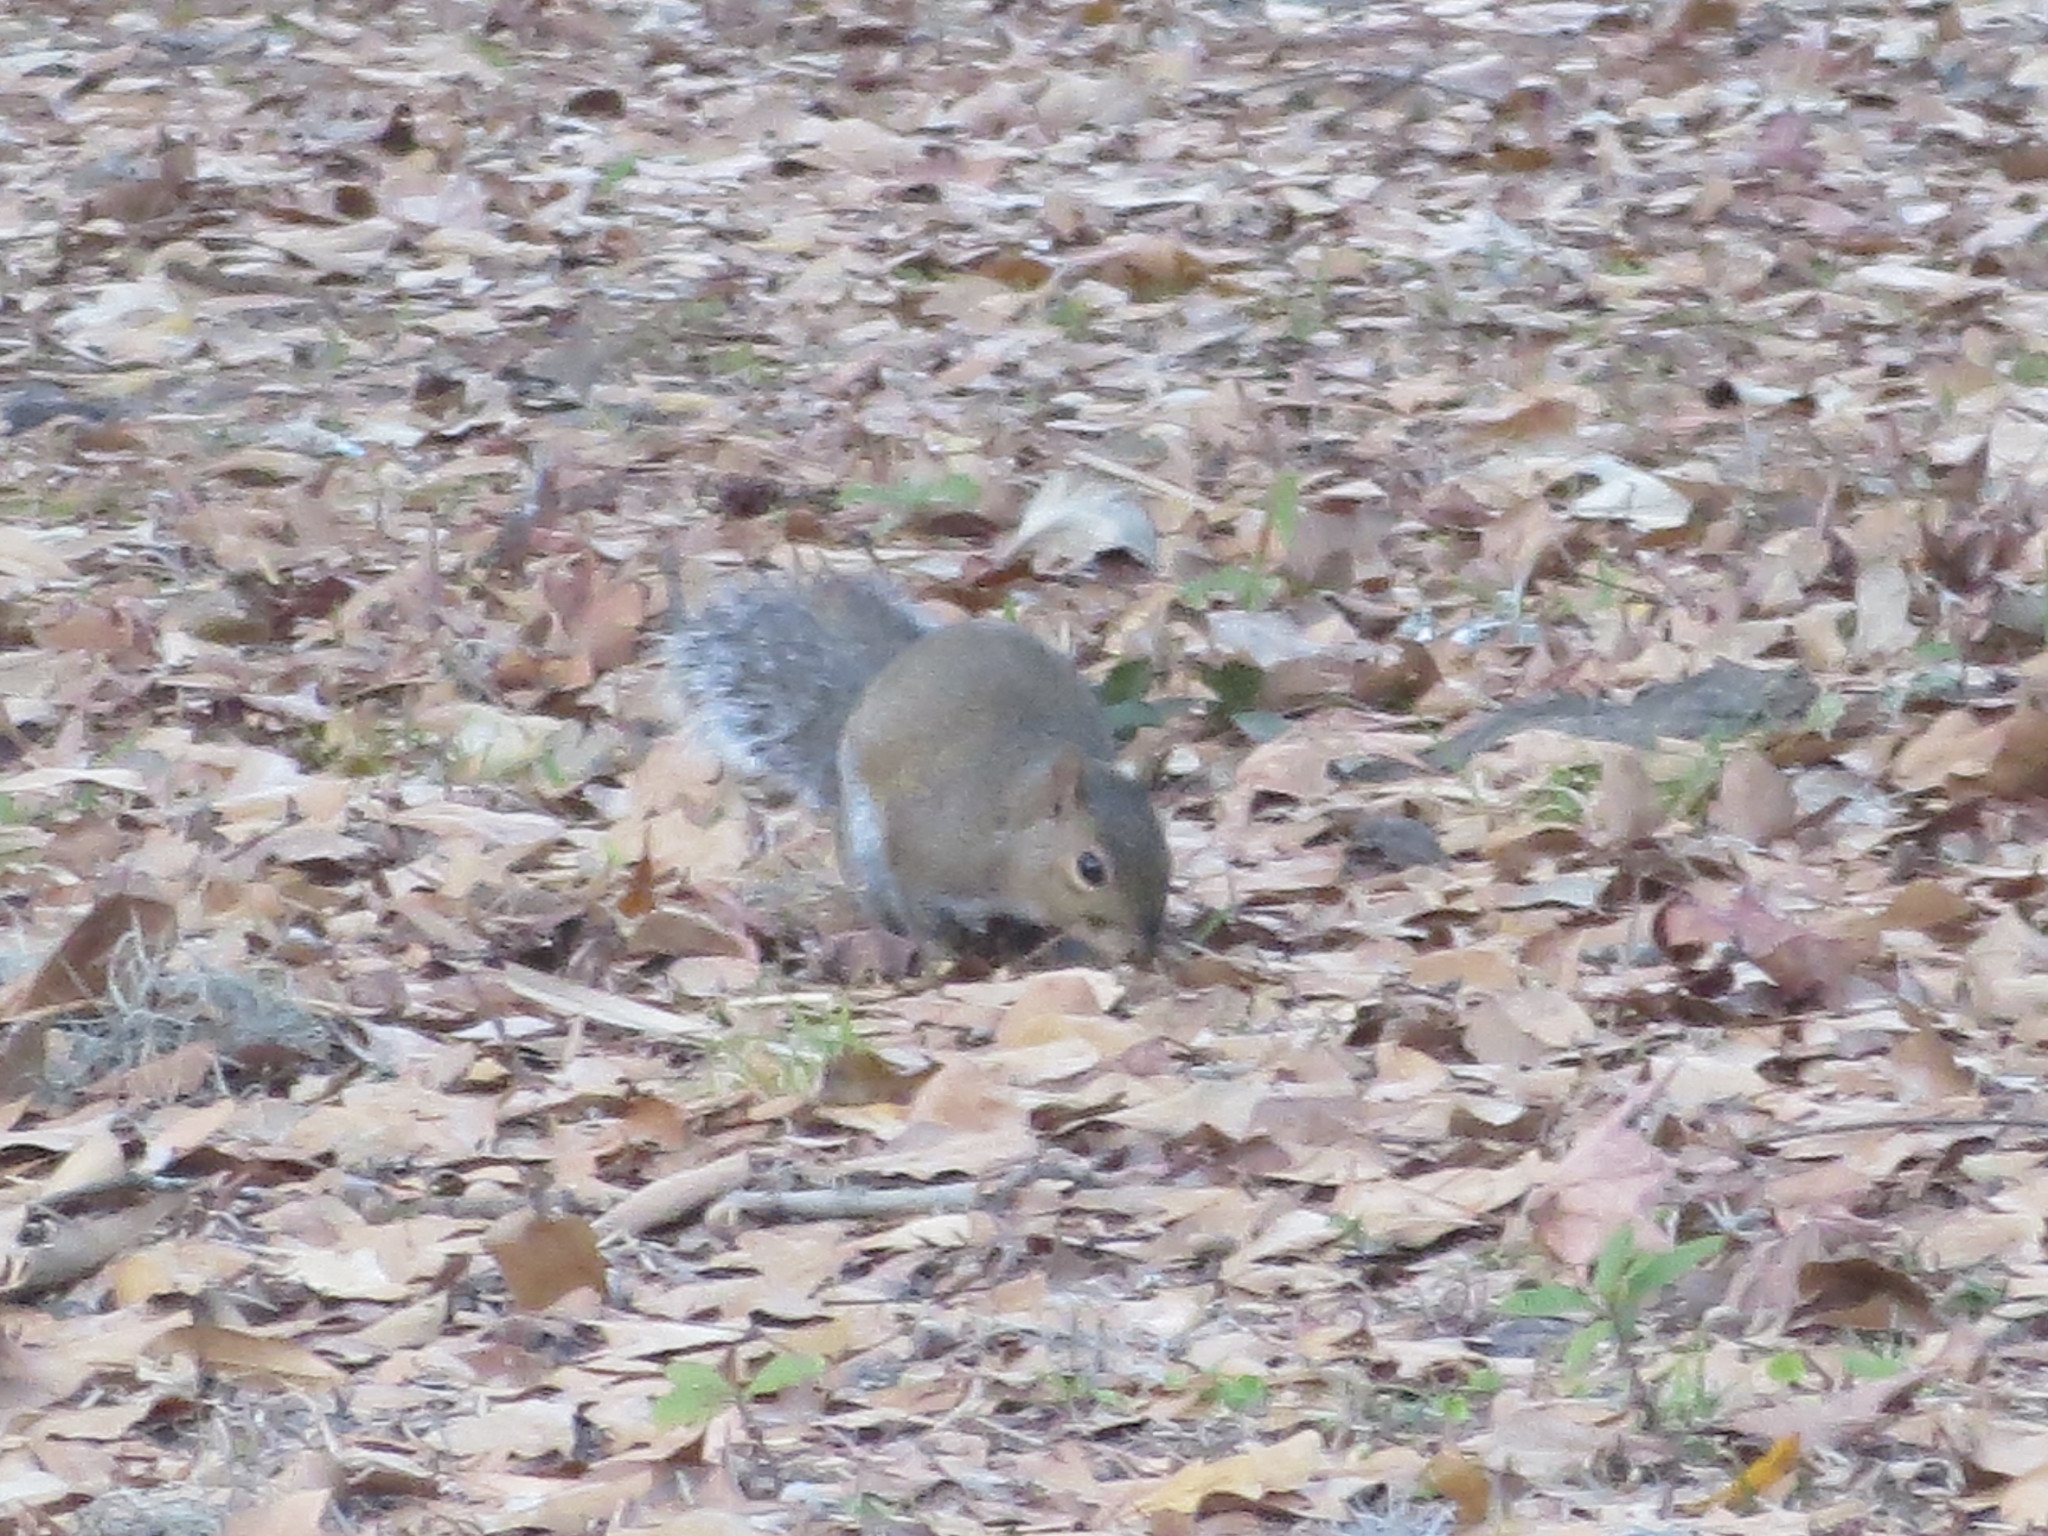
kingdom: Animalia
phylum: Chordata
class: Mammalia
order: Rodentia
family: Sciuridae
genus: Sciurus
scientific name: Sciurus carolinensis
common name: Eastern gray squirrel
